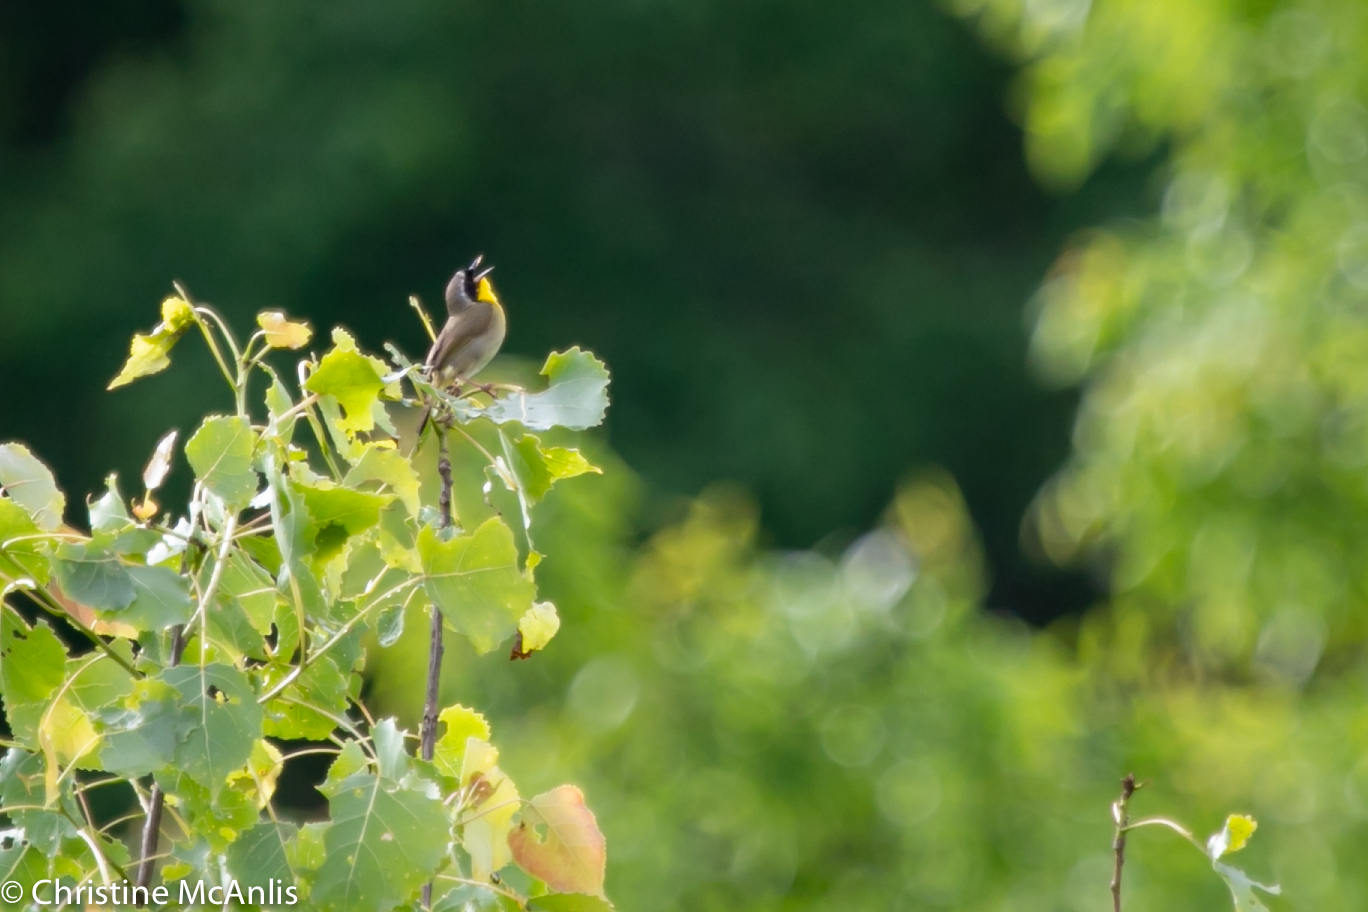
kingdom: Animalia
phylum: Chordata
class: Aves
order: Passeriformes
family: Parulidae
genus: Geothlypis
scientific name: Geothlypis trichas
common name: Common yellowthroat
